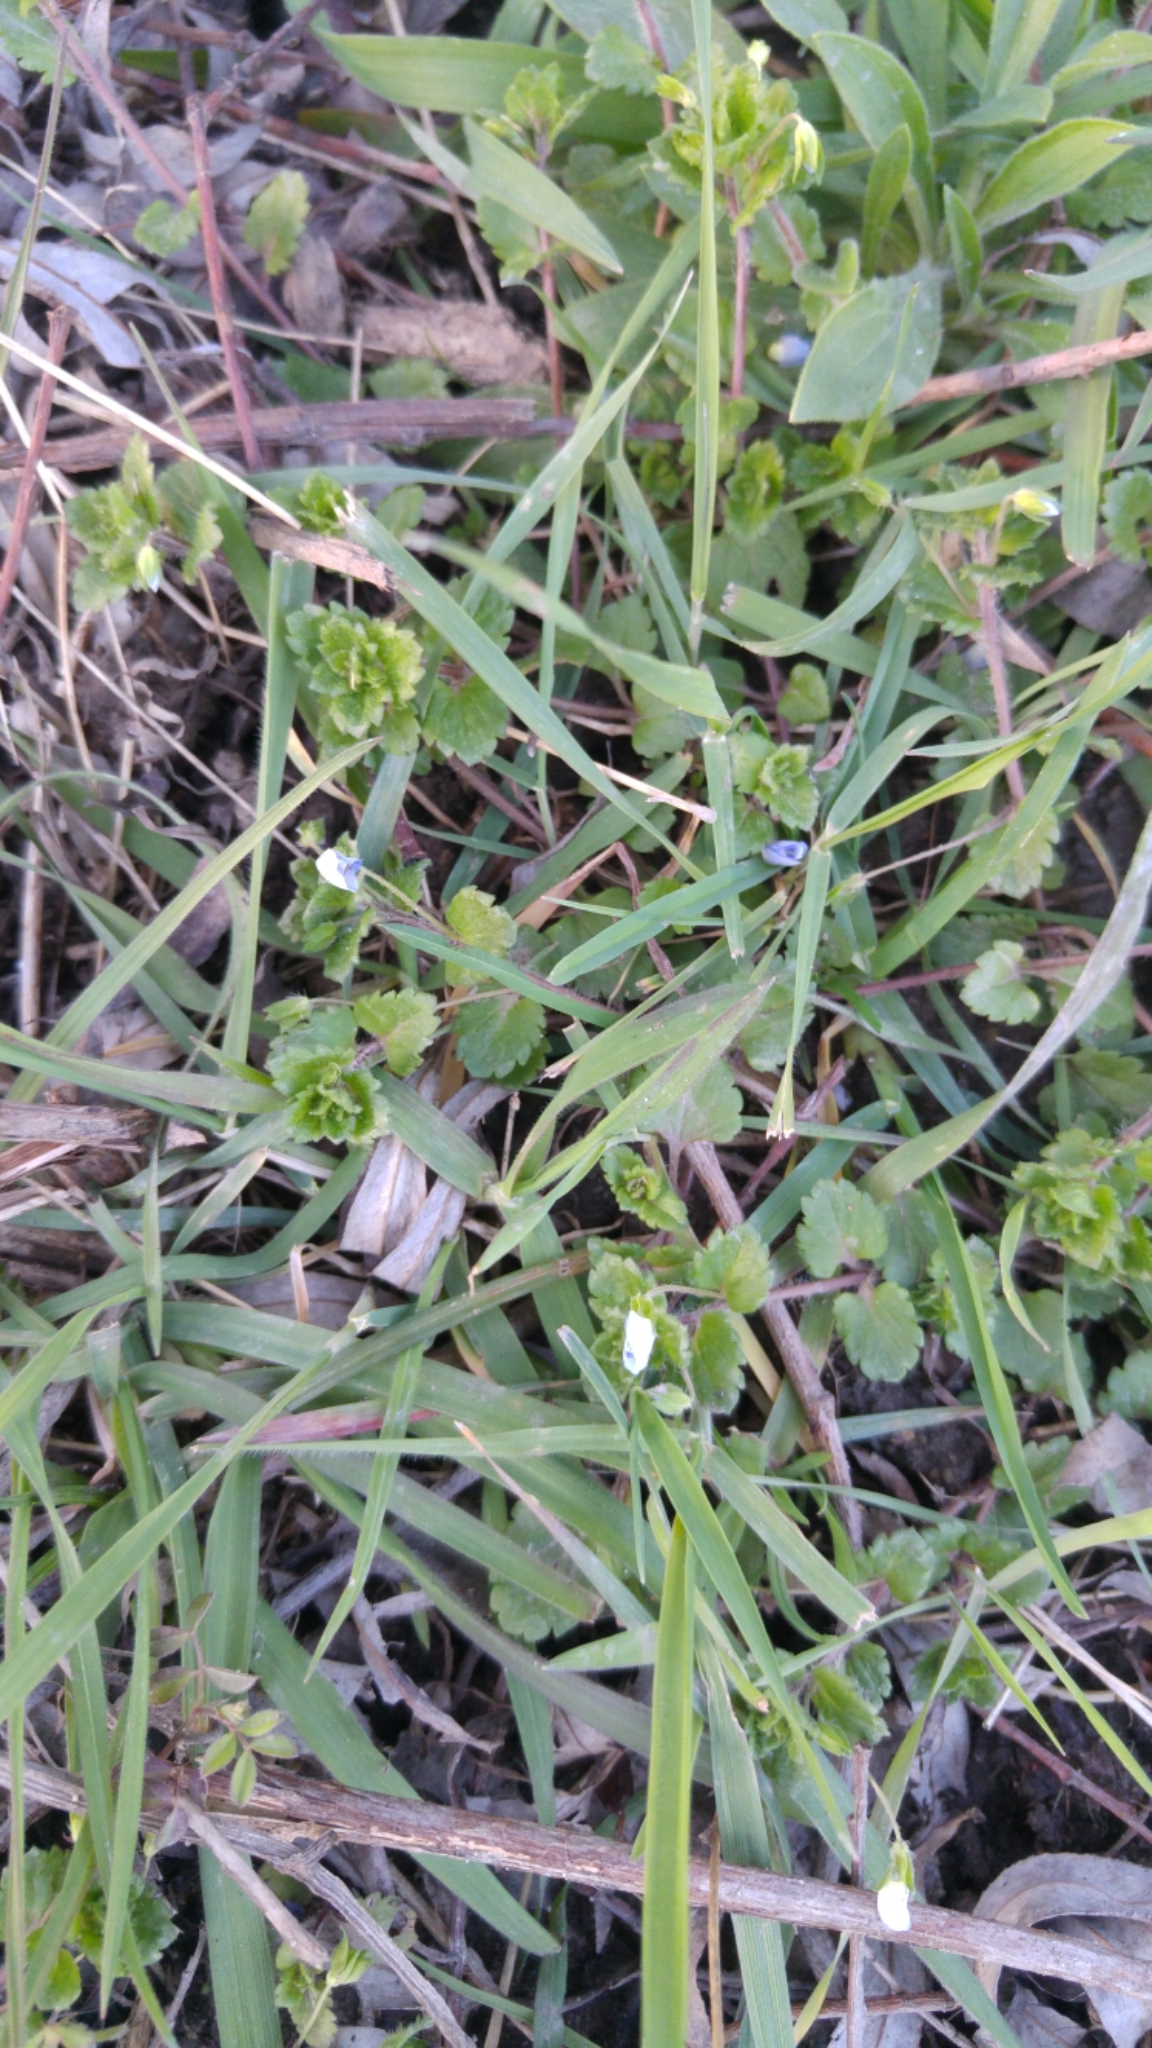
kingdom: Plantae
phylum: Tracheophyta
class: Magnoliopsida
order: Lamiales
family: Plantaginaceae
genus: Veronica
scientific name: Veronica persica
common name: Common field-speedwell
